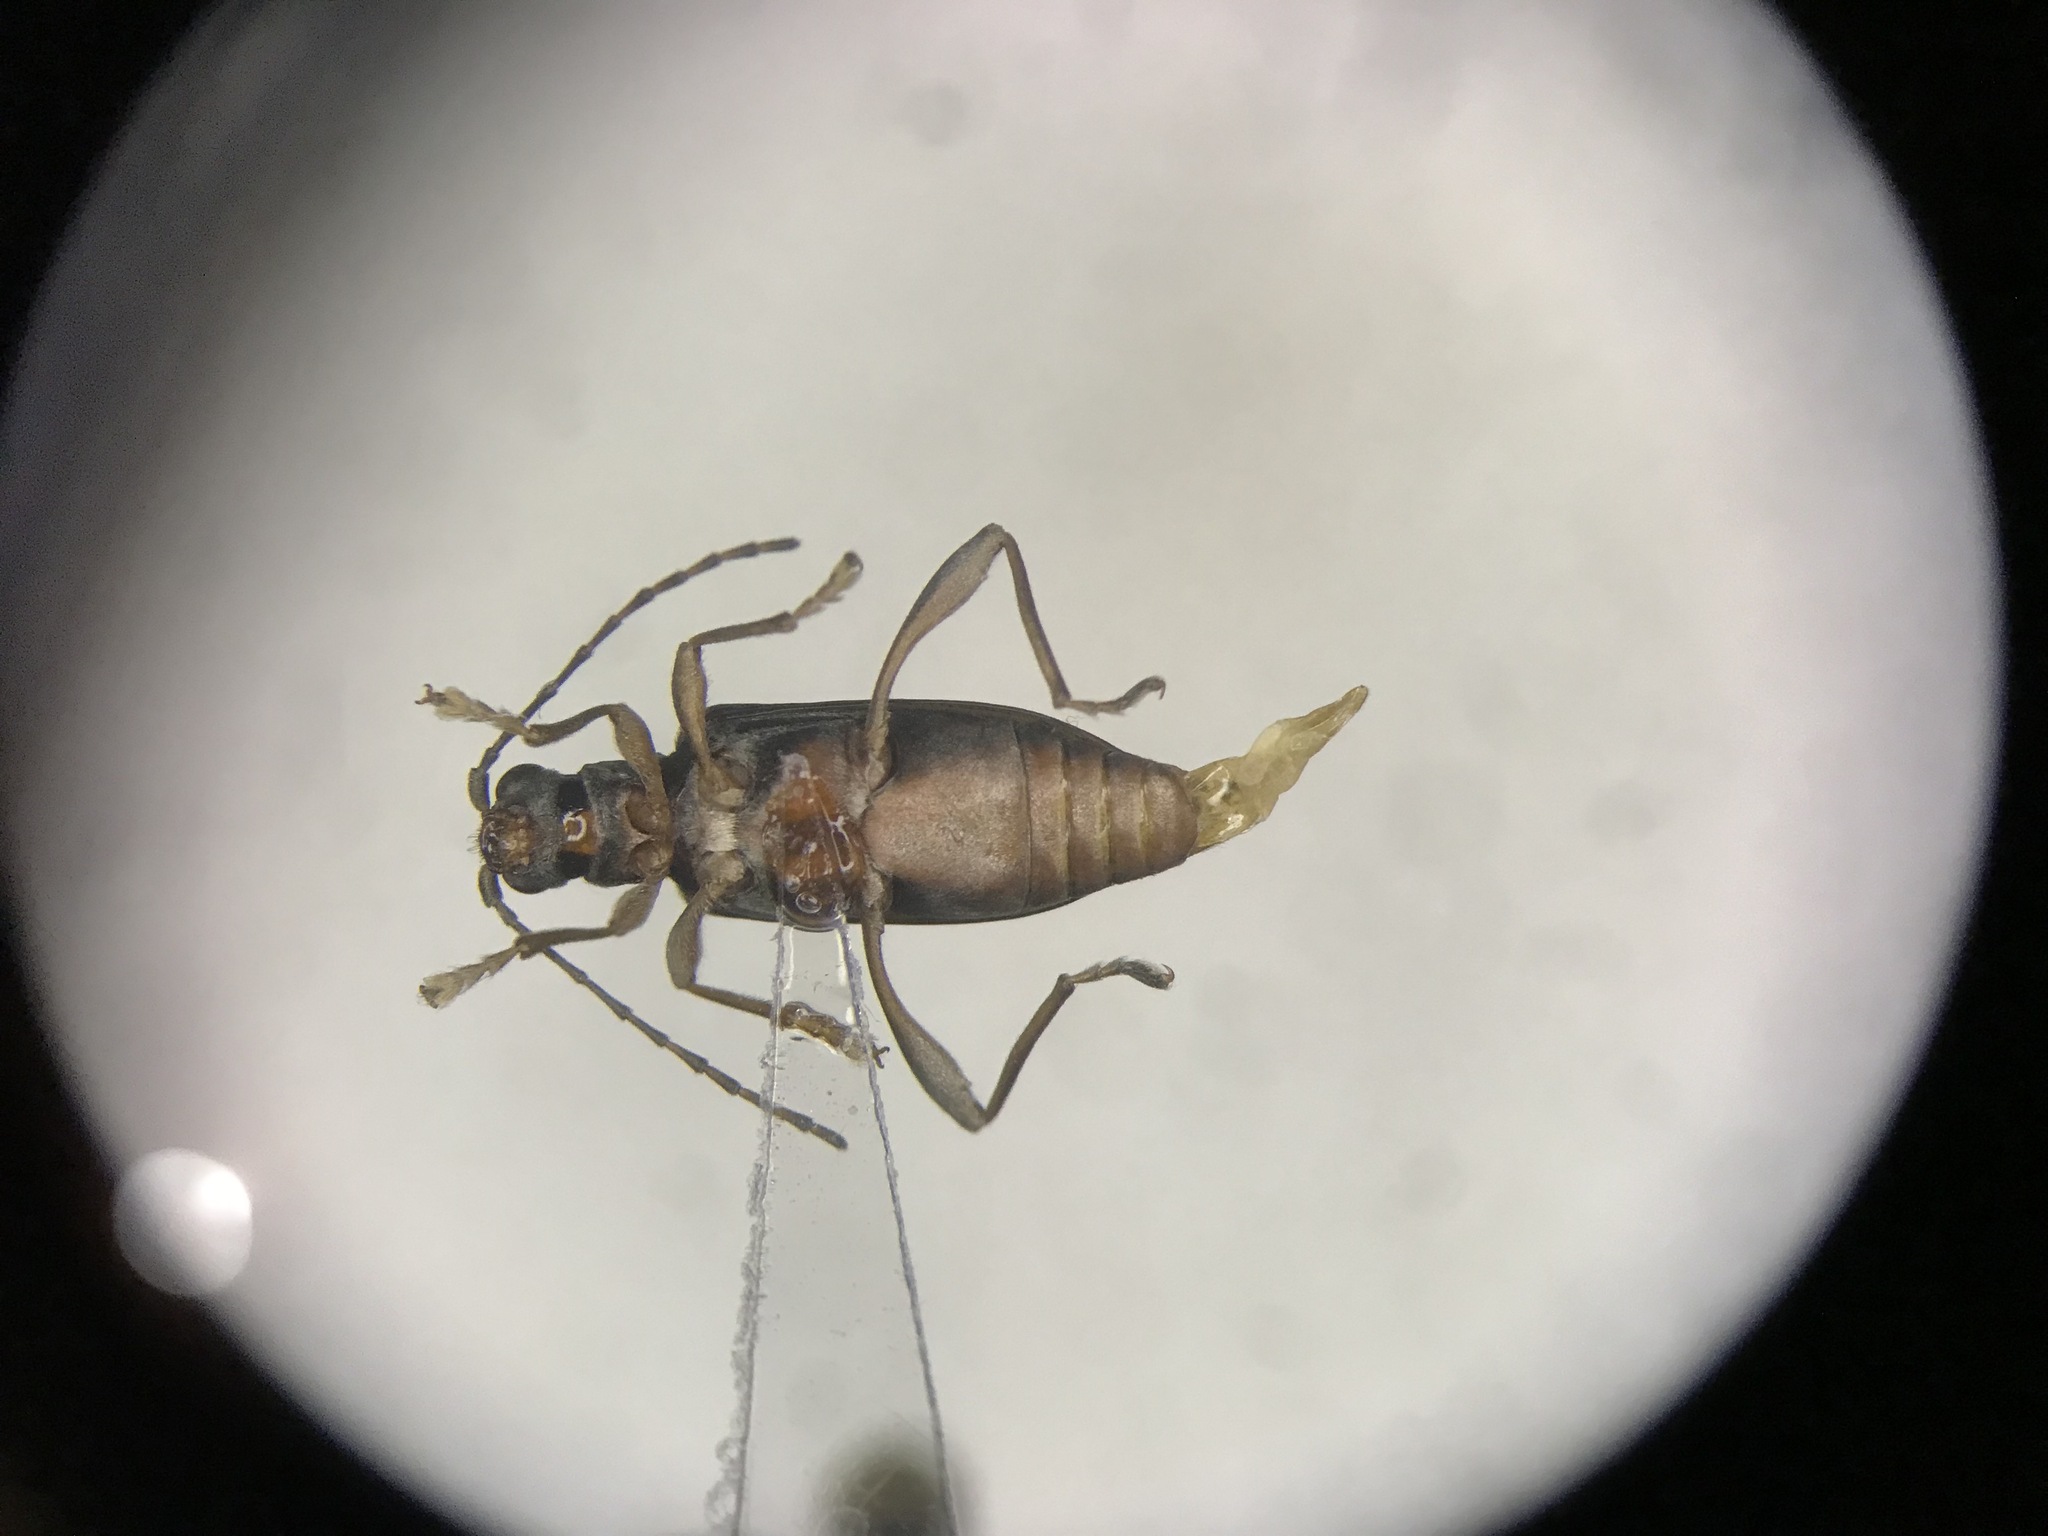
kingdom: Animalia
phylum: Arthropoda
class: Insecta
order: Coleoptera
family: Chrysomelidae
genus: Donacia
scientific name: Donacia cincticornis
